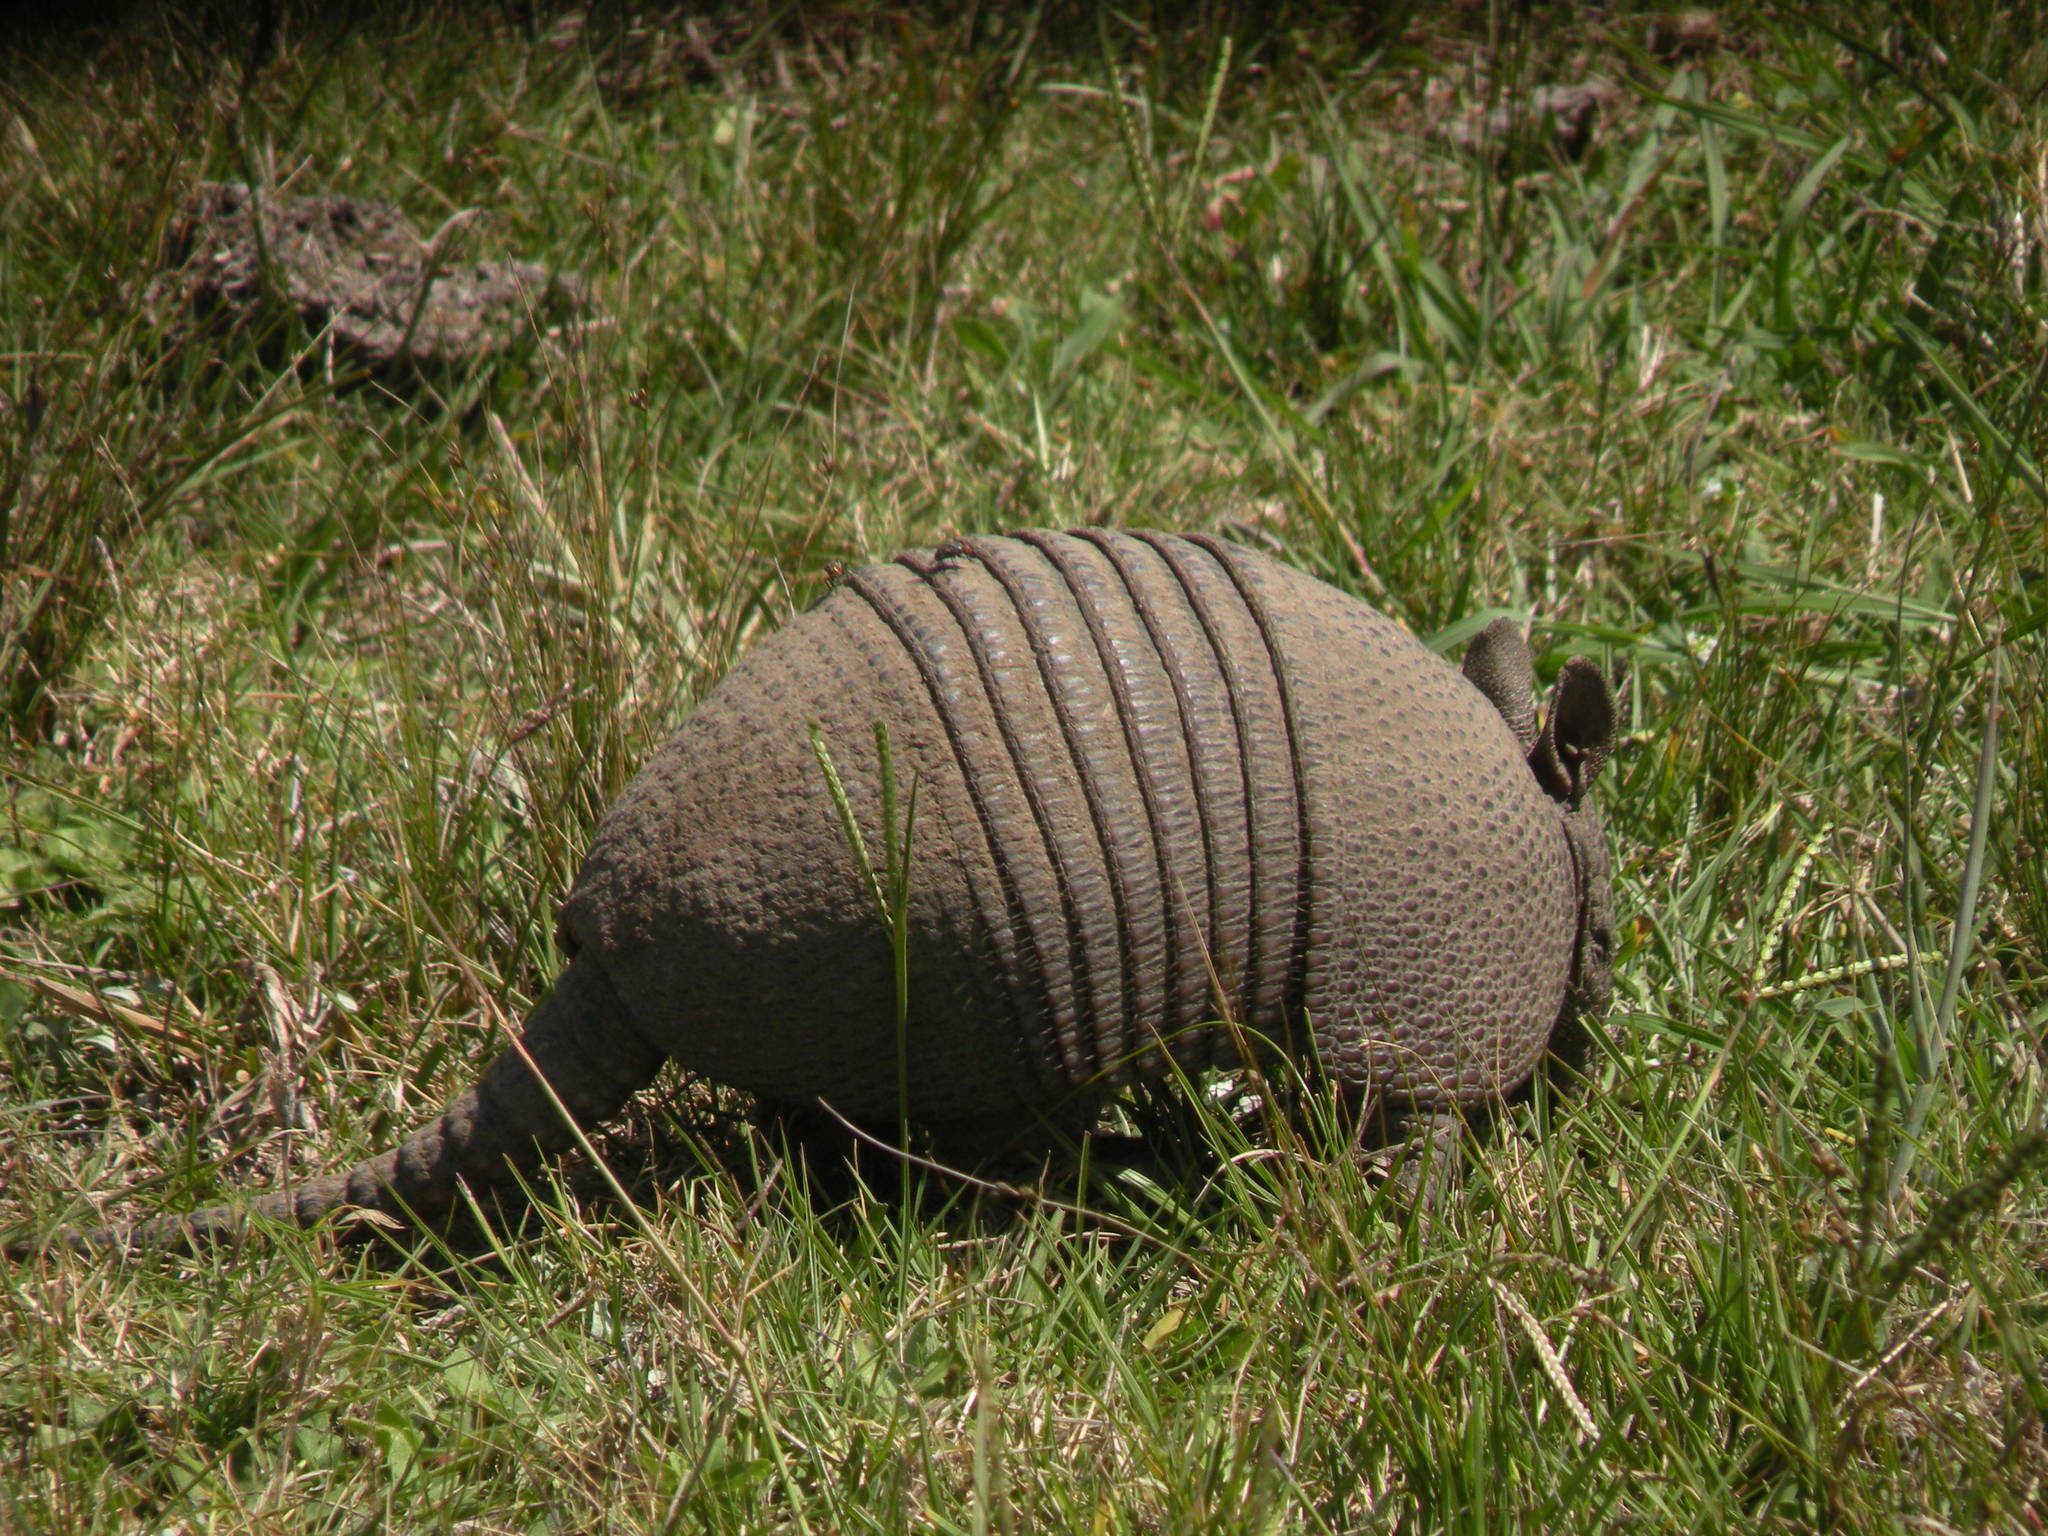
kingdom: Animalia
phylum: Chordata
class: Mammalia
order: Cingulata
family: Dasypodidae
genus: Dasypus
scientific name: Dasypus septemcinctus
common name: Seven-banded armadillo
